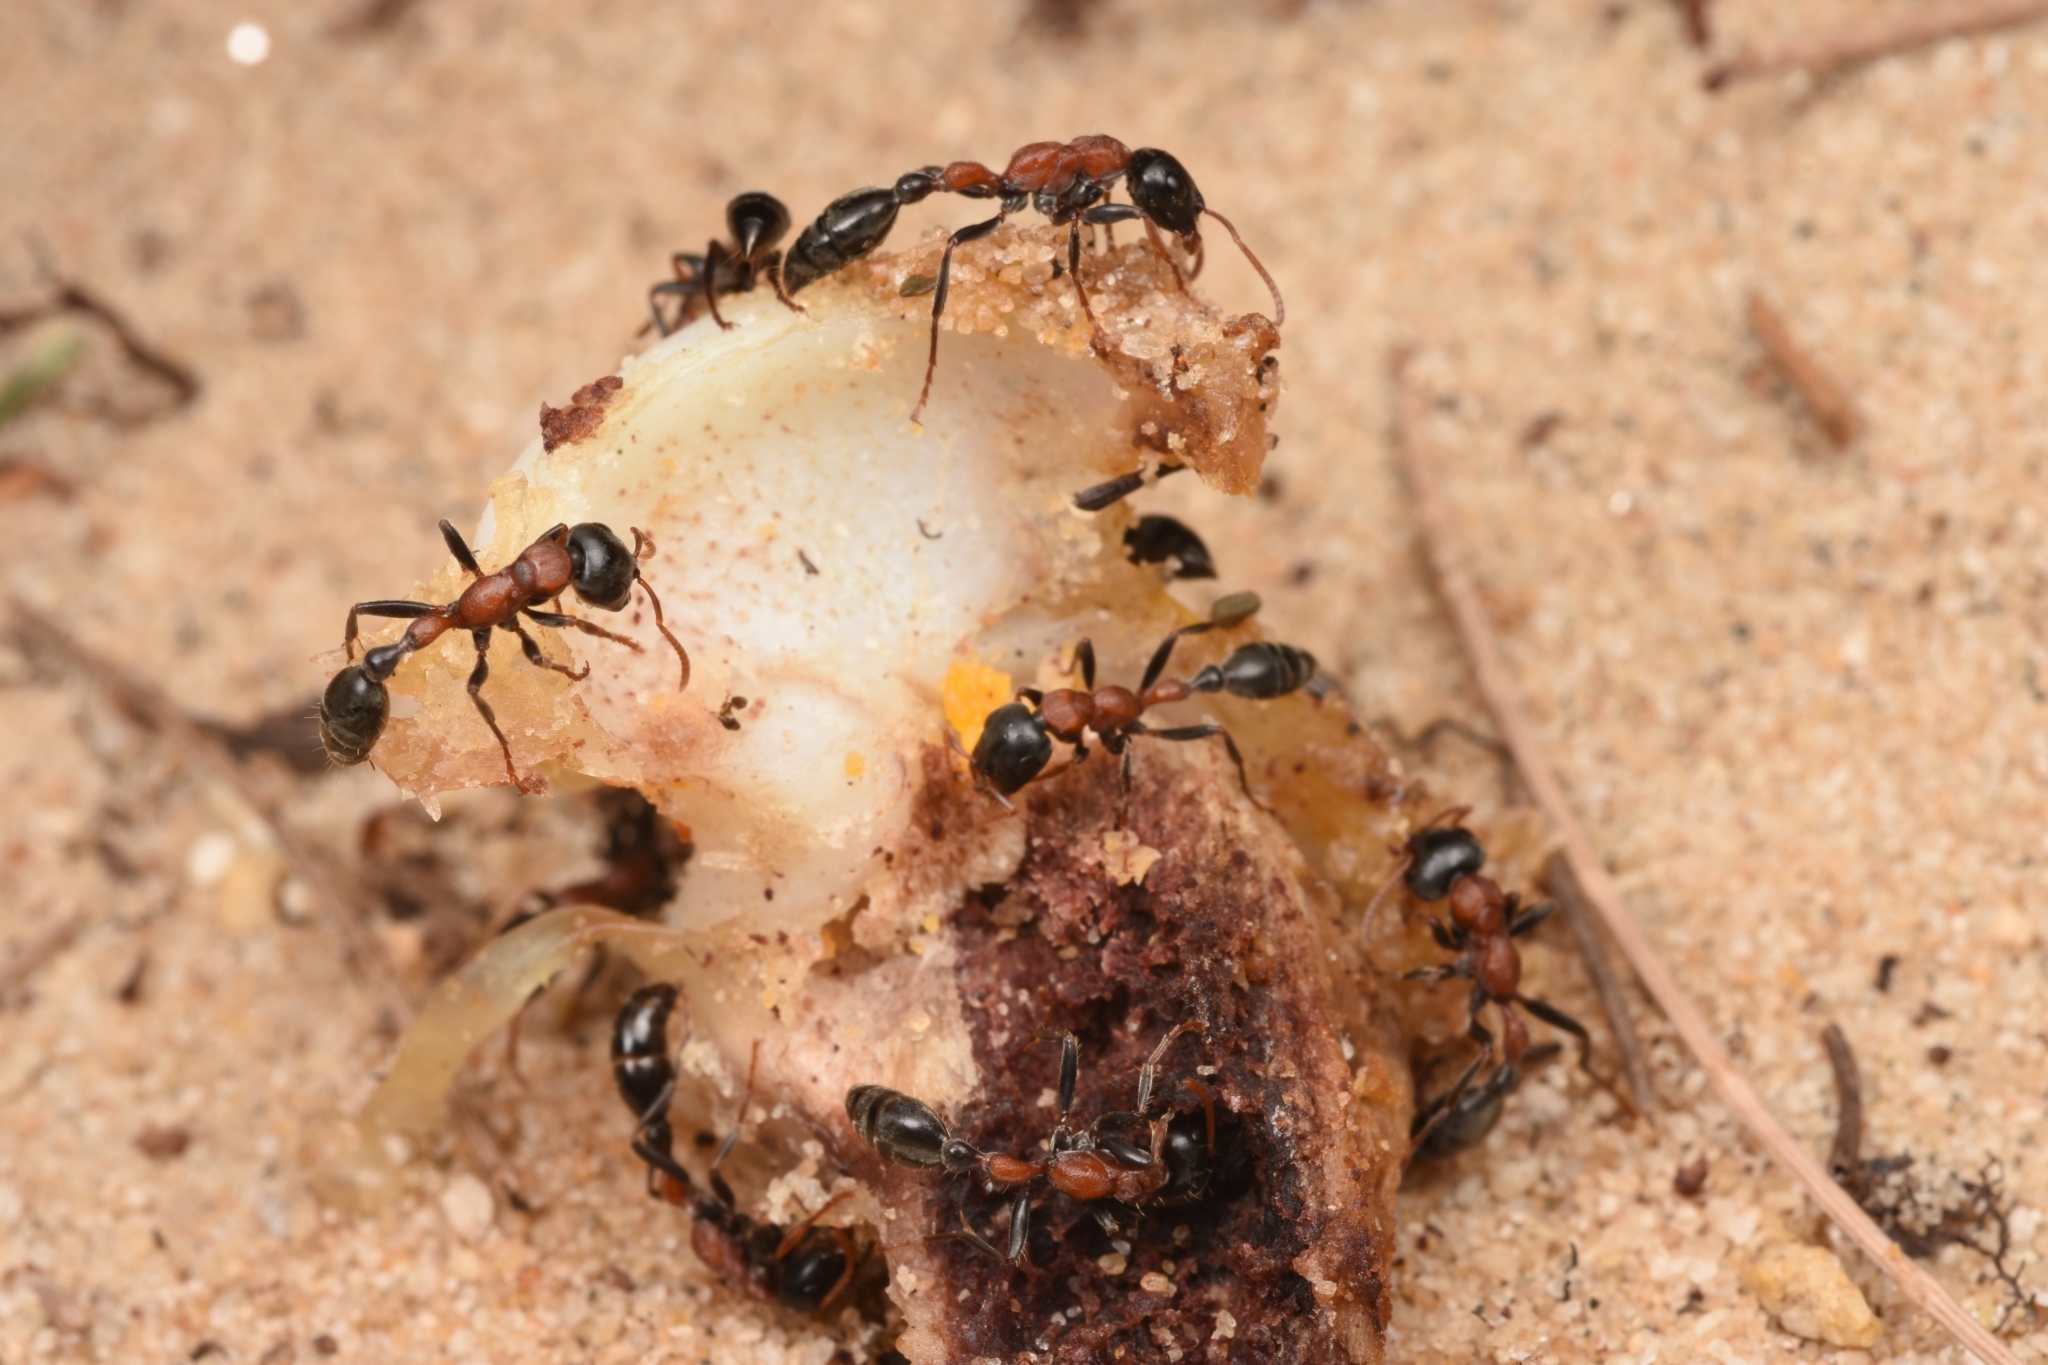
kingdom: Animalia
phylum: Arthropoda
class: Insecta
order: Hymenoptera
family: Formicidae
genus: Tetraponera
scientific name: Tetraponera rufonigra
